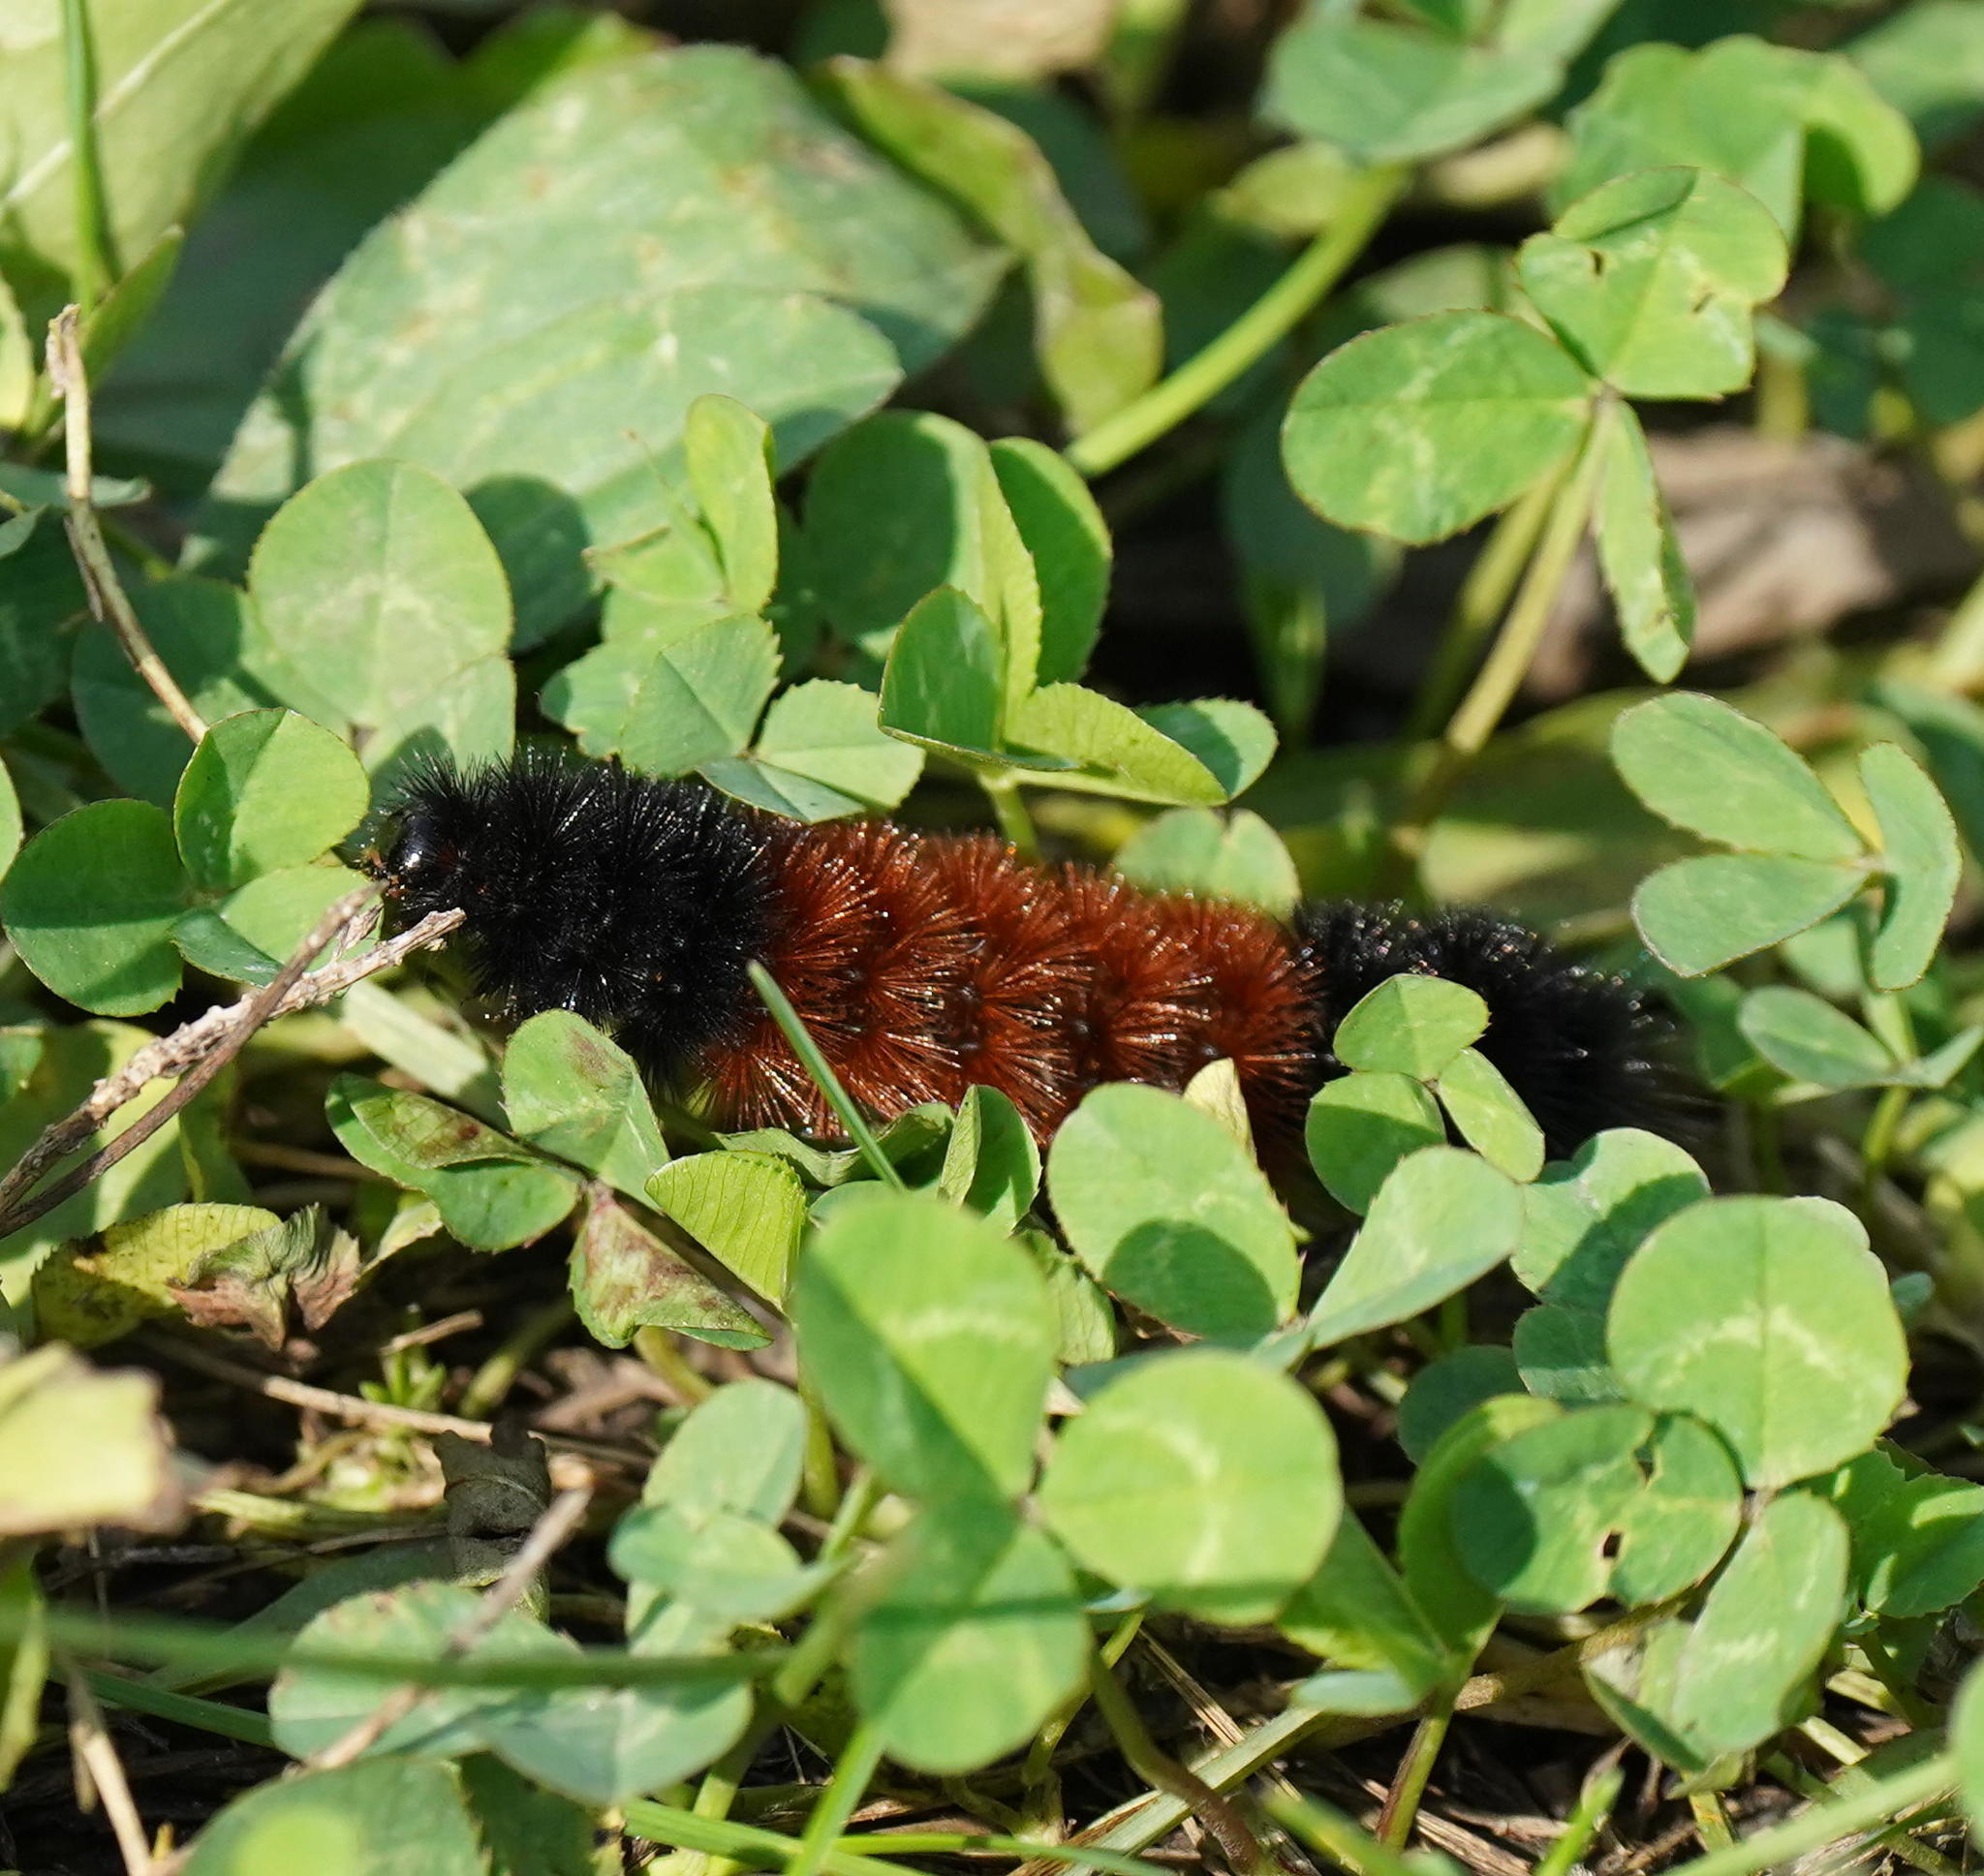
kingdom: Animalia
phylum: Arthropoda
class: Insecta
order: Lepidoptera
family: Erebidae
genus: Pyrrharctia
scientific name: Pyrrharctia isabella
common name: Isabella tiger moth
